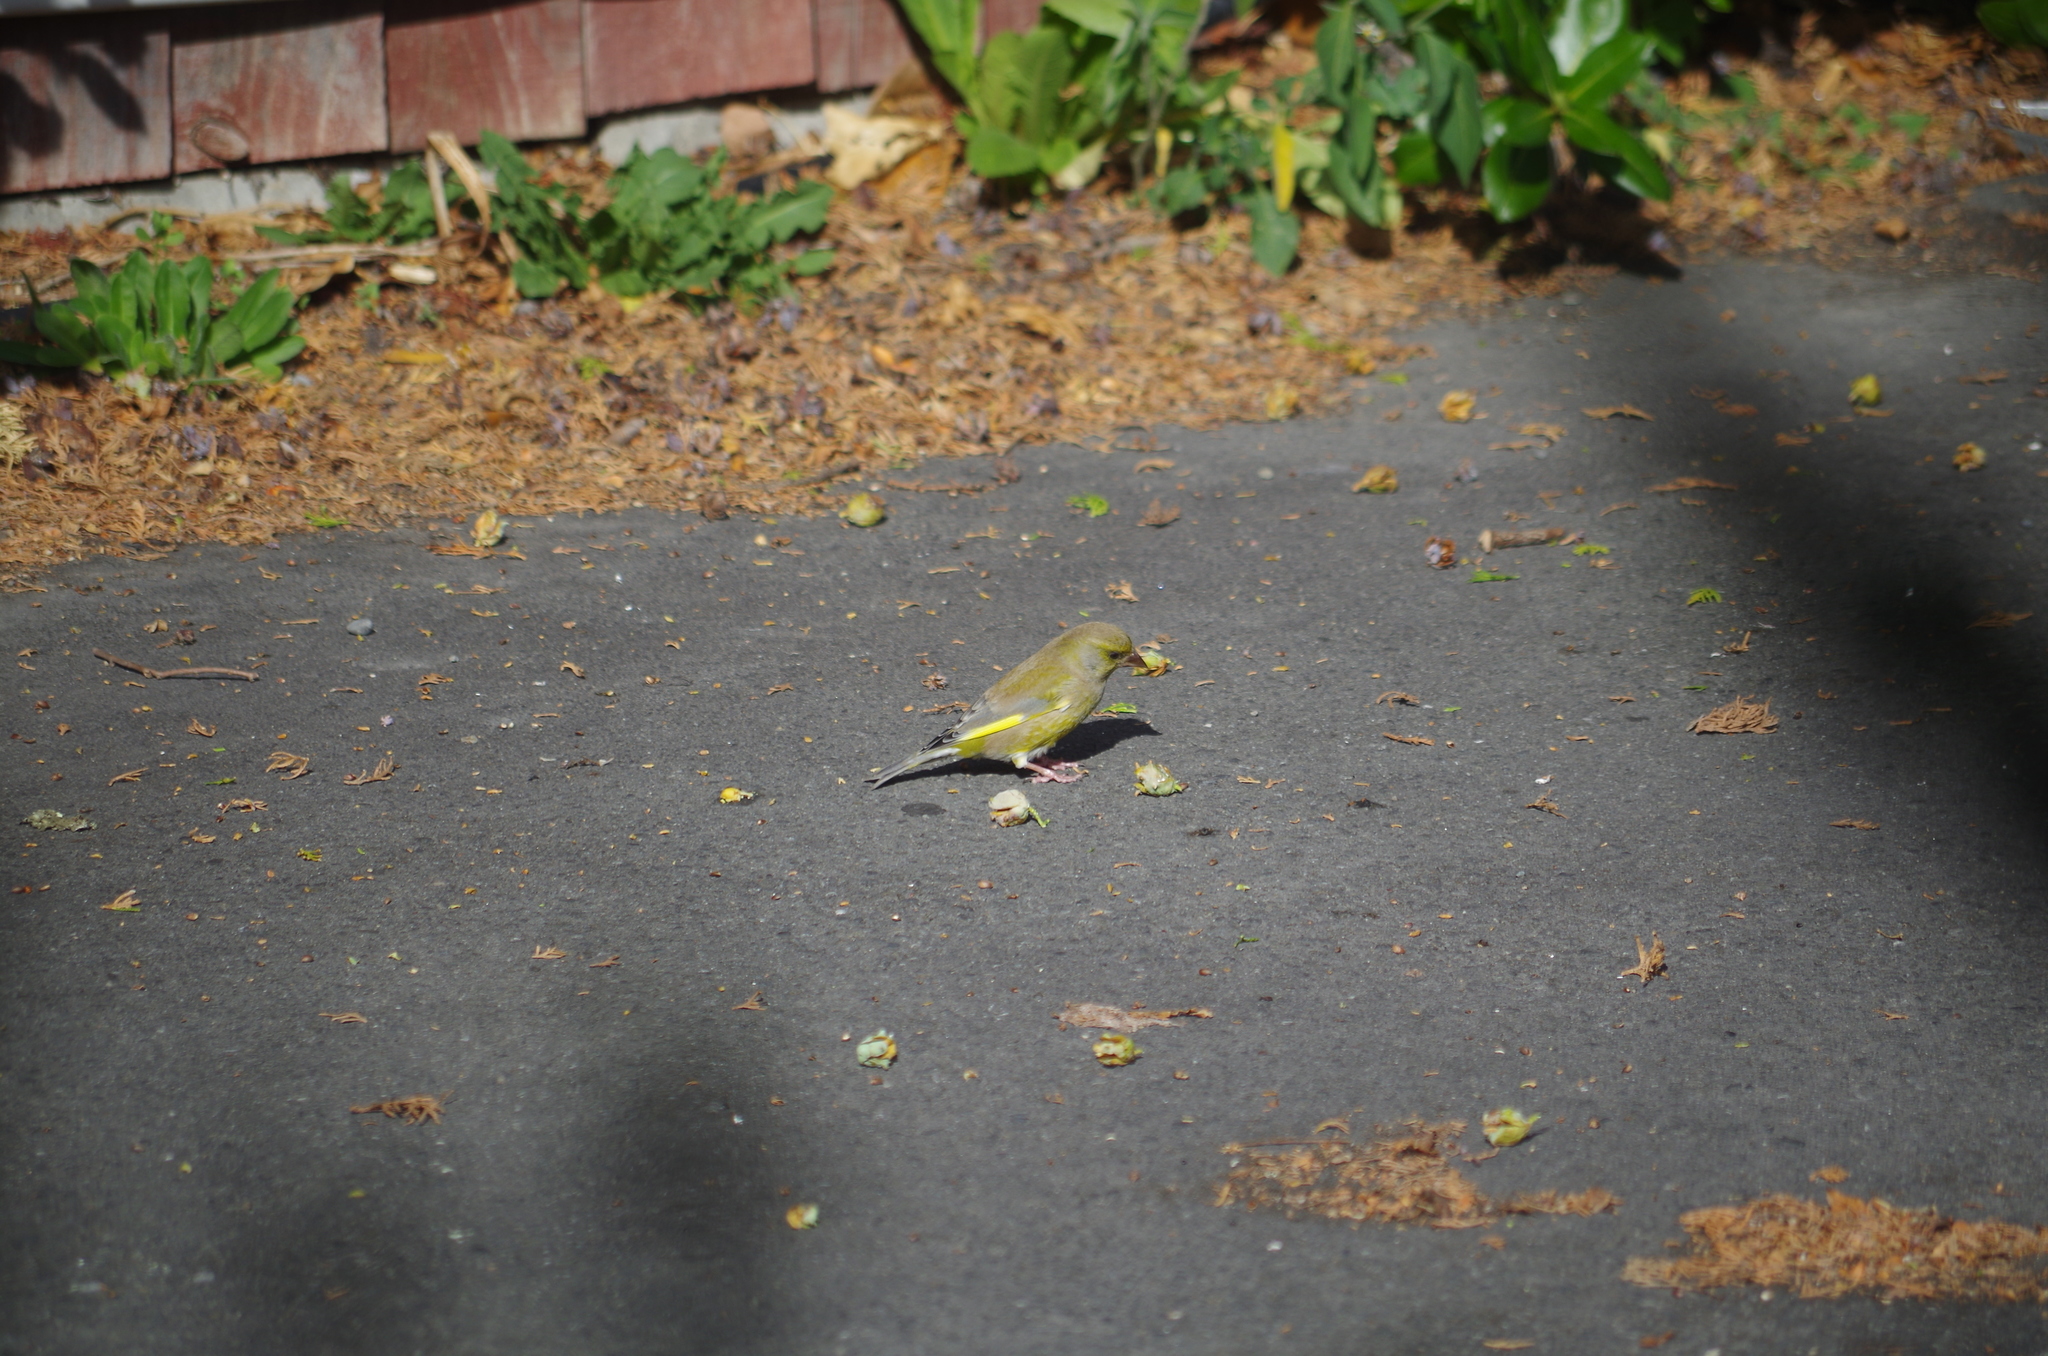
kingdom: Plantae
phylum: Tracheophyta
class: Liliopsida
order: Poales
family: Poaceae
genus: Chloris
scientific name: Chloris chloris
